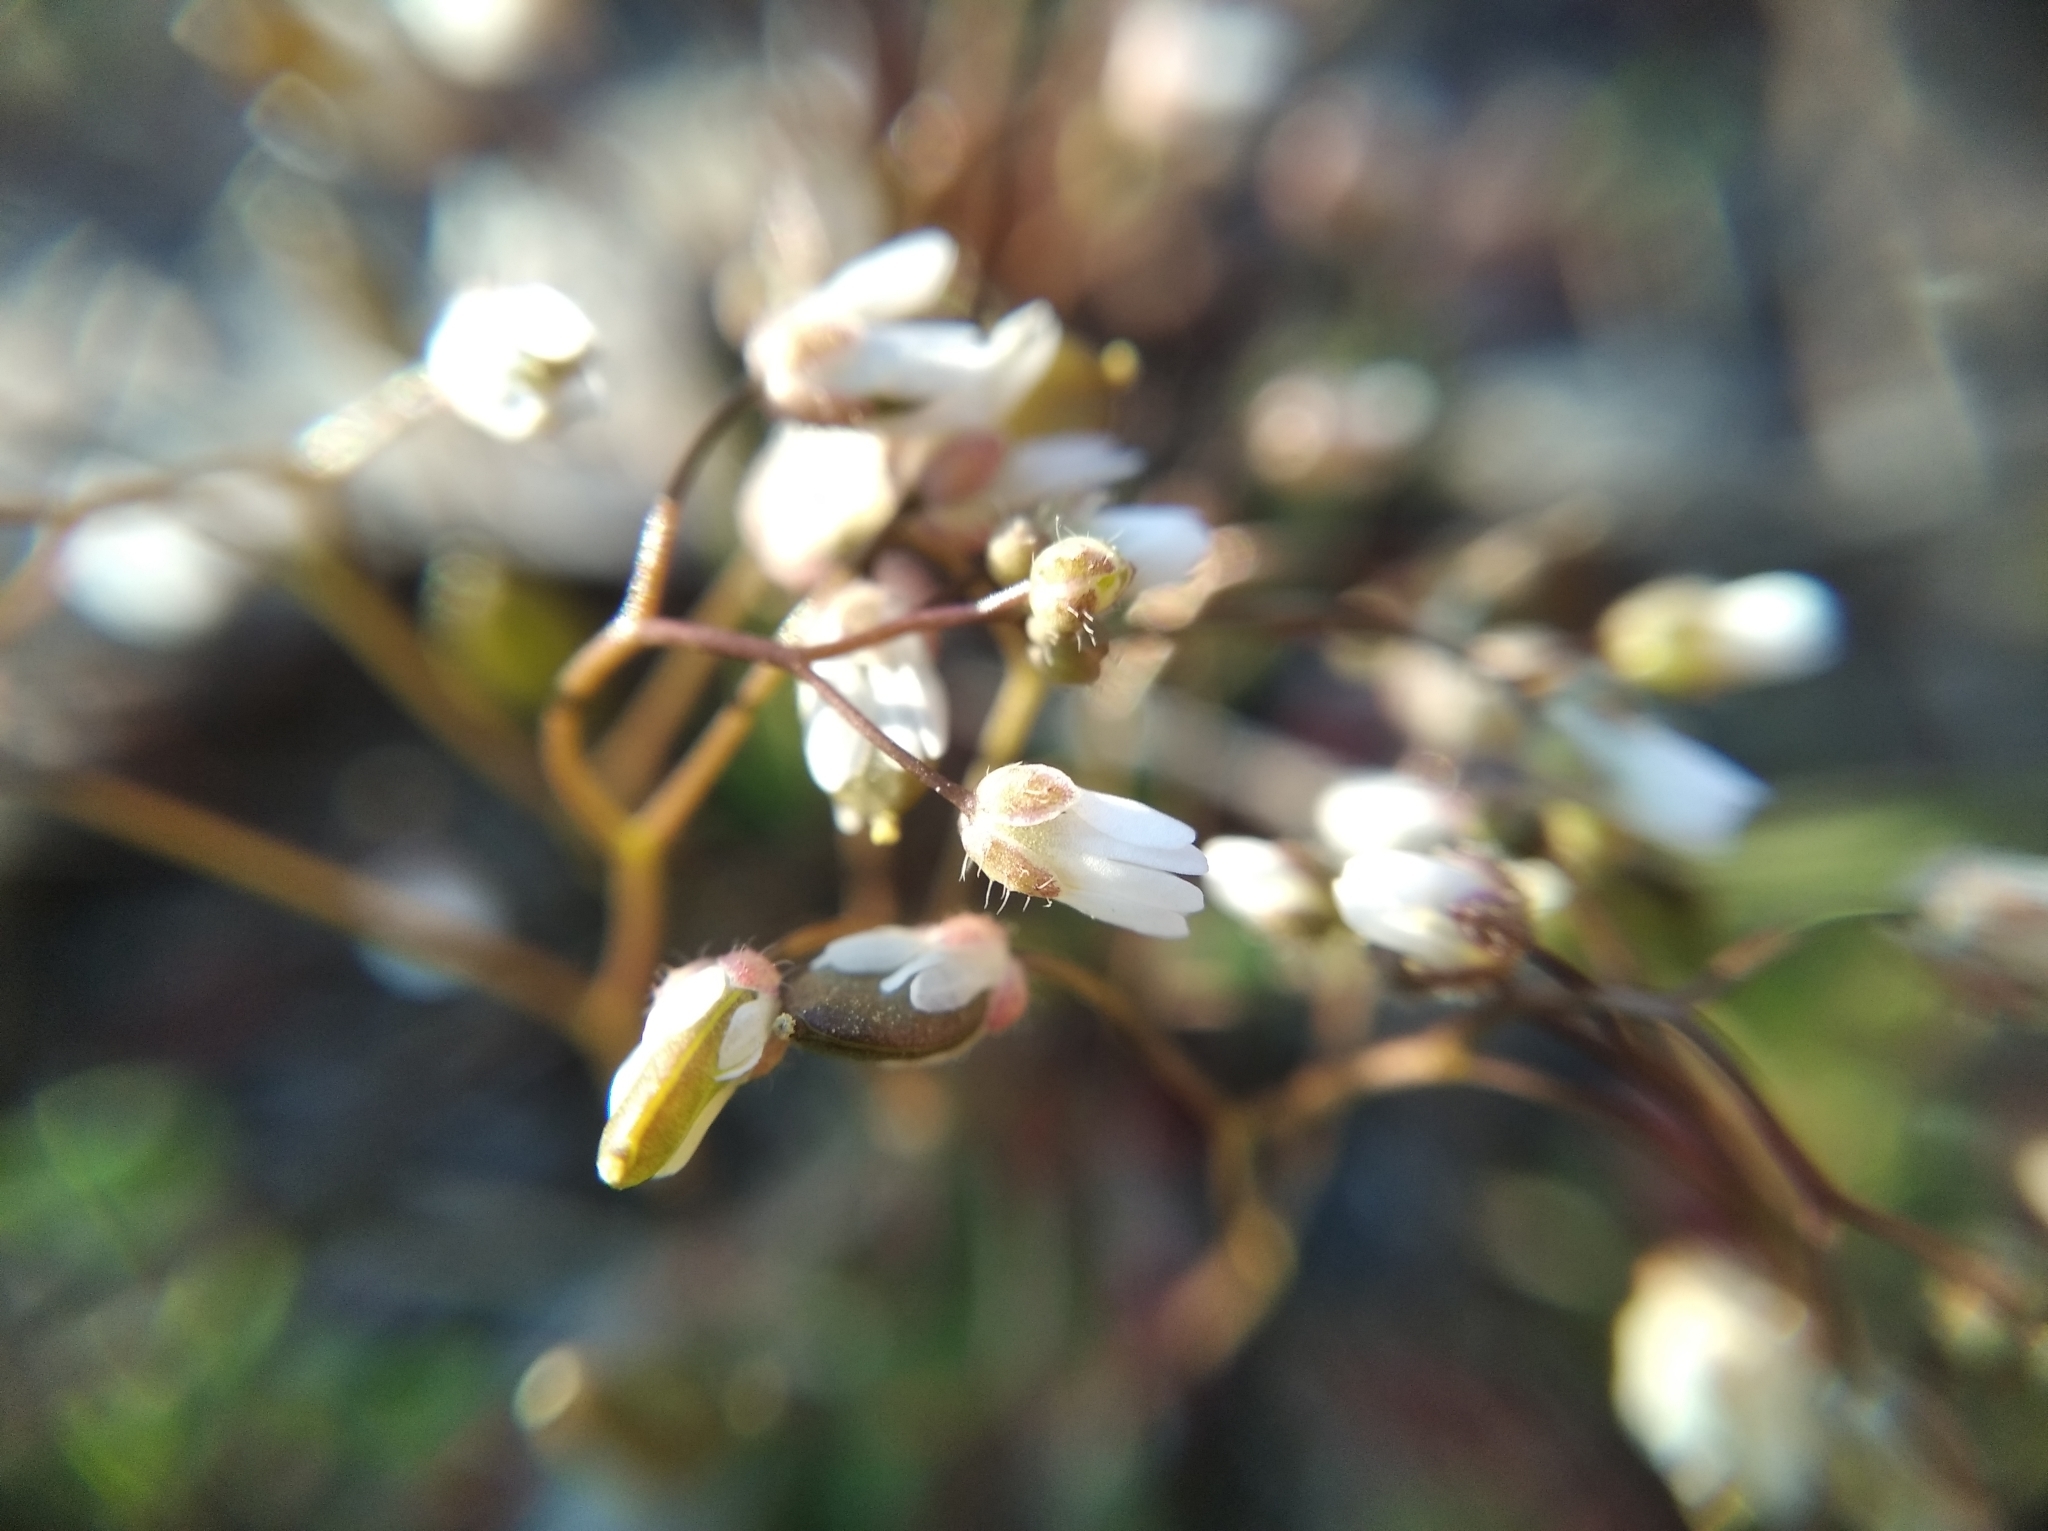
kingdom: Plantae
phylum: Tracheophyta
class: Magnoliopsida
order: Brassicales
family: Brassicaceae
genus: Draba
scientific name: Draba verna
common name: Spring draba
